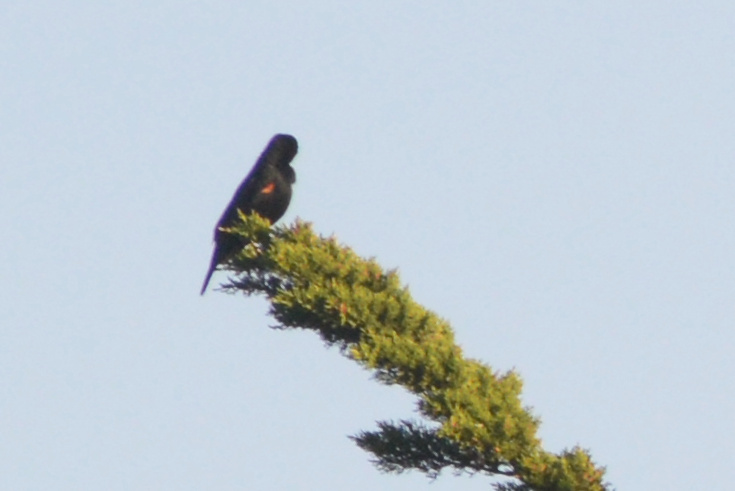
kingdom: Animalia
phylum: Chordata
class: Aves
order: Passeriformes
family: Icteridae
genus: Agelaius
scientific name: Agelaius phoeniceus
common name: Red-winged blackbird
